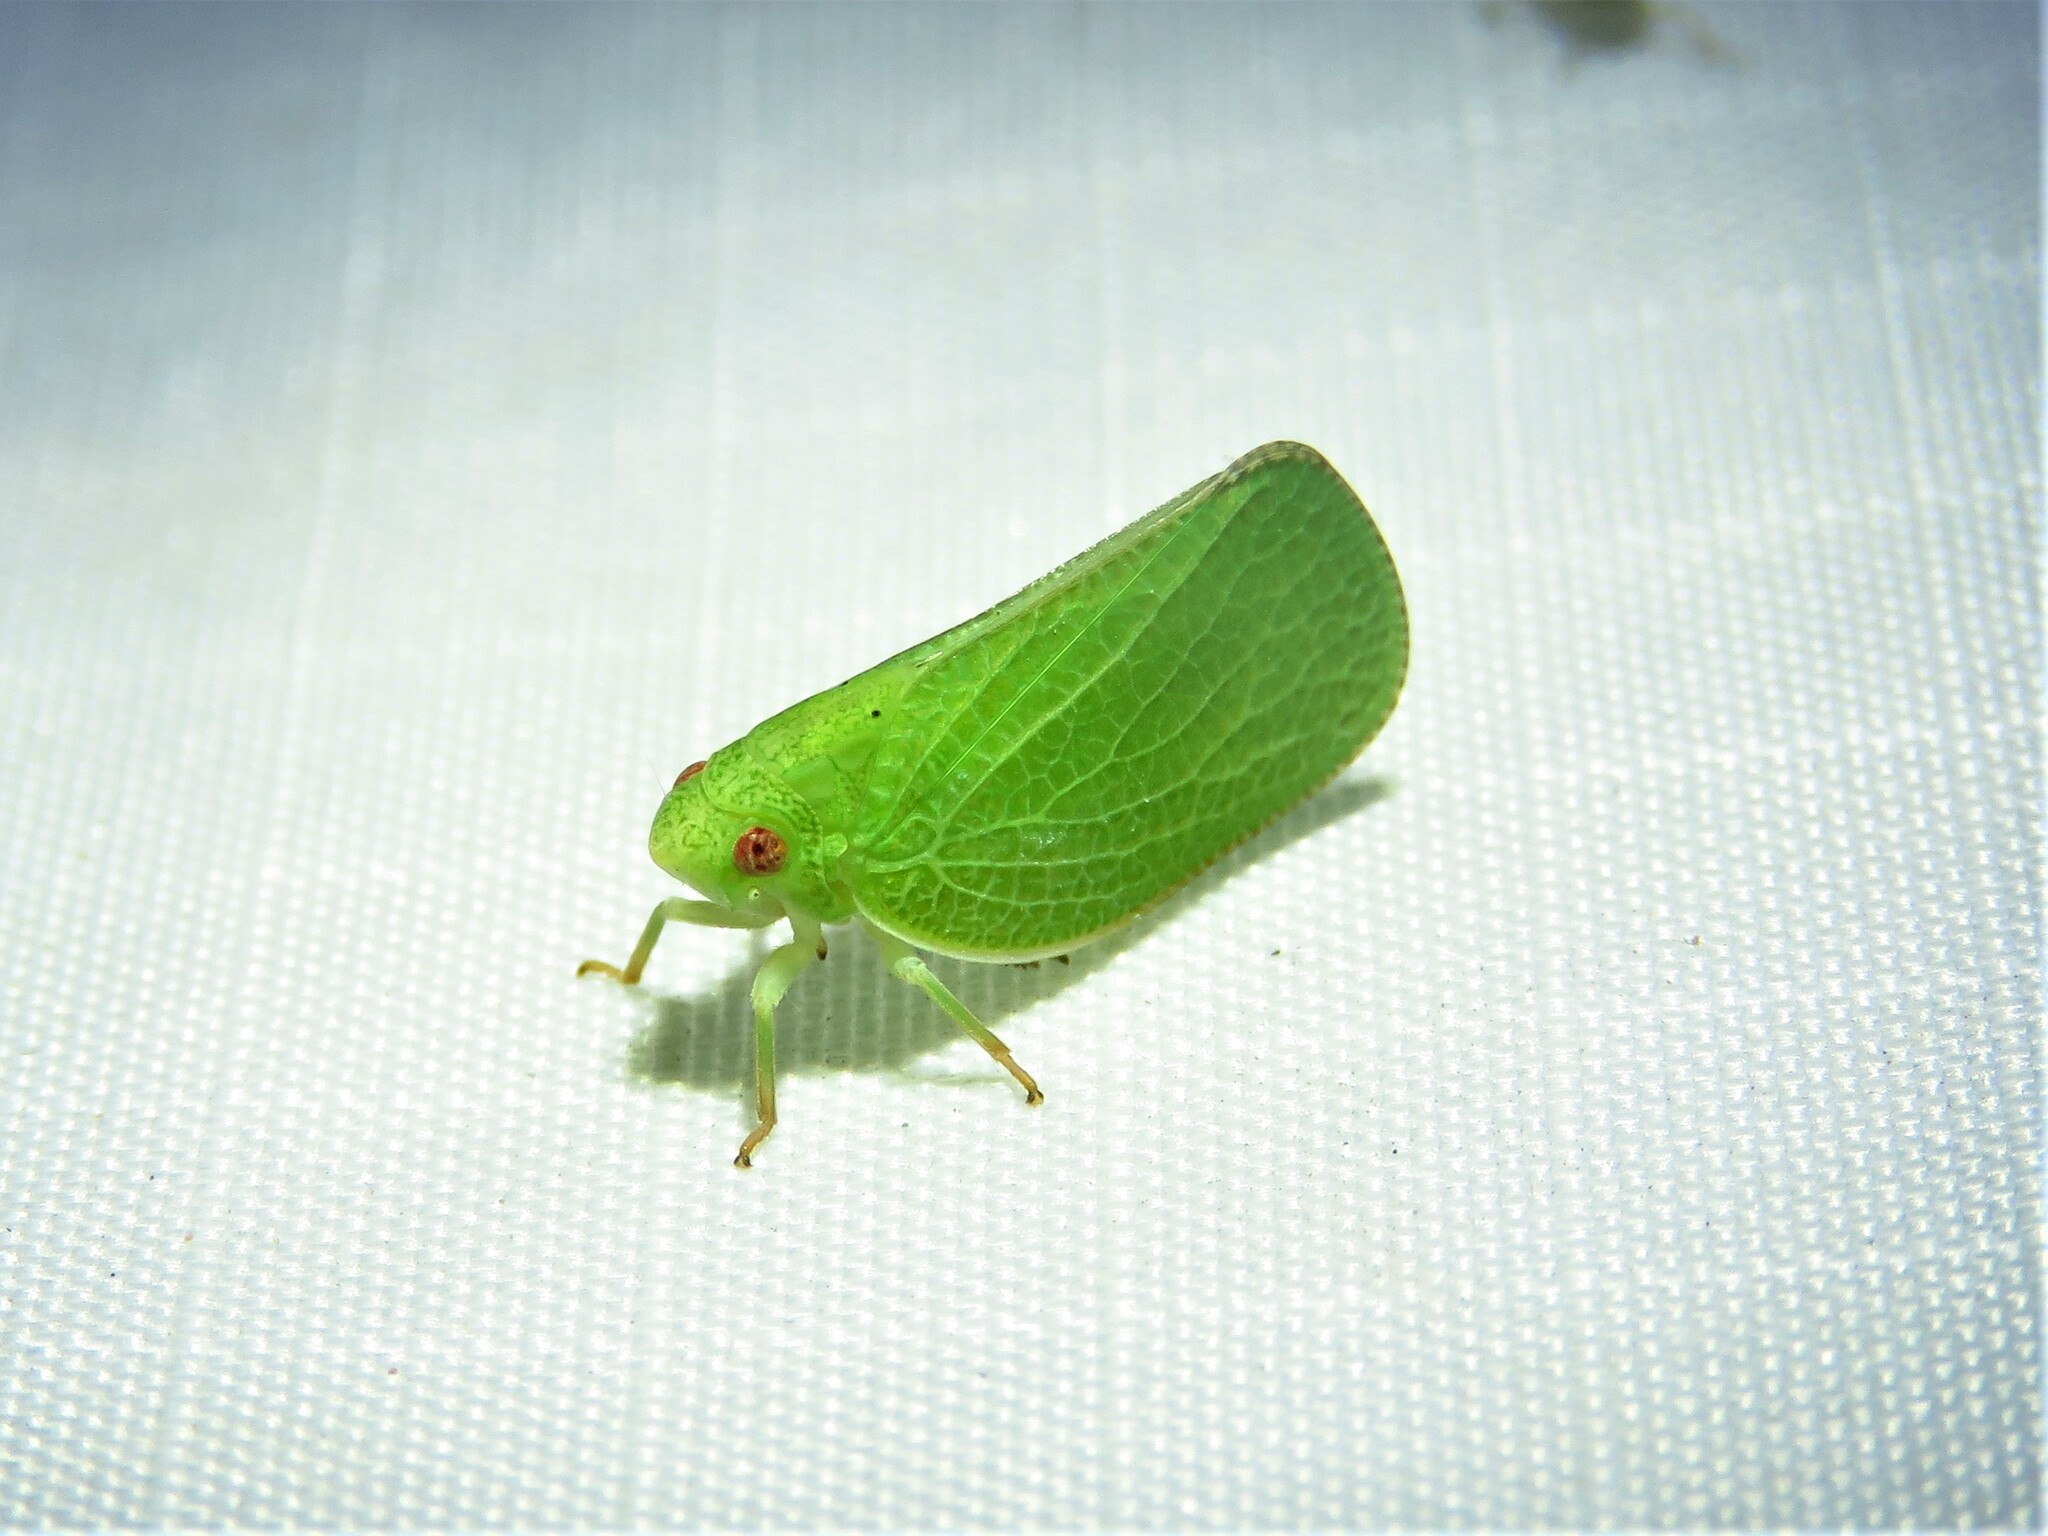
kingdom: Animalia
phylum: Arthropoda
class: Insecta
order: Hemiptera
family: Acanaloniidae
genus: Acanalonia
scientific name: Acanalonia conica
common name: Green cone-headed planthopper
